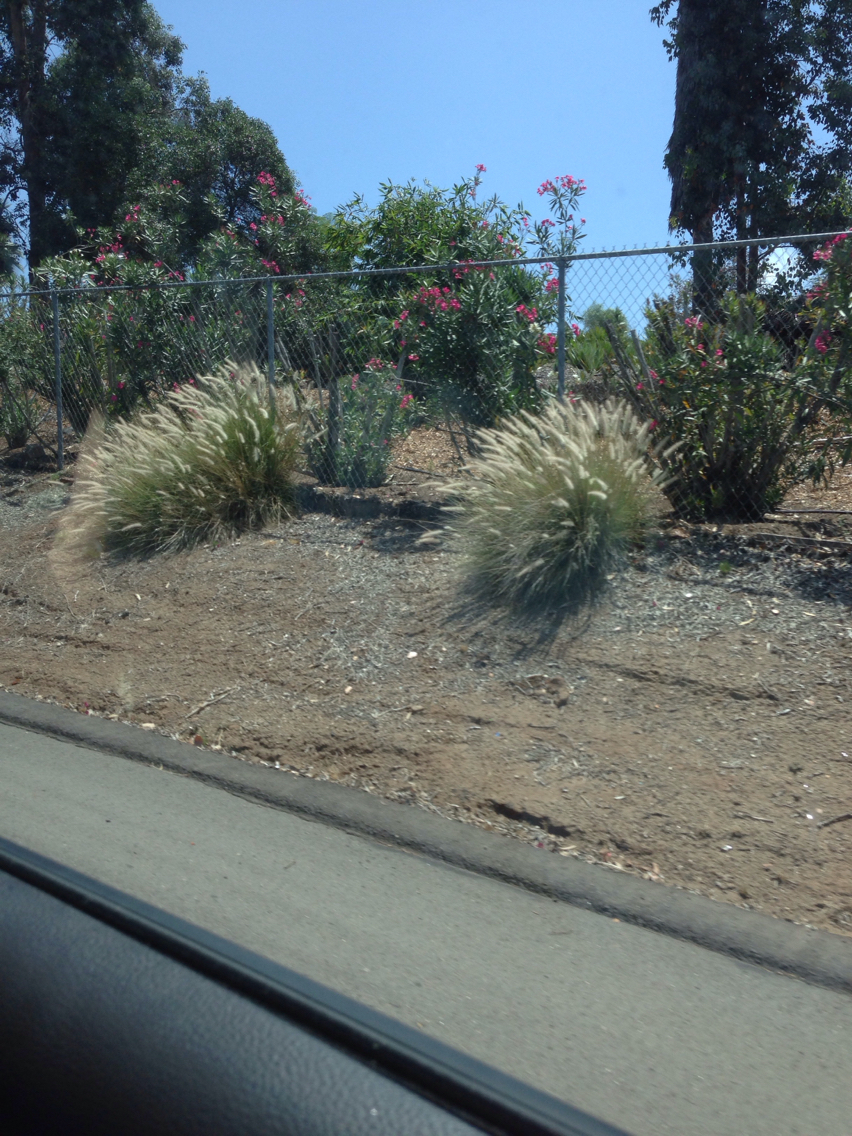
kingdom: Plantae
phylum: Tracheophyta
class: Liliopsida
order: Poales
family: Poaceae
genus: Cenchrus
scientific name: Cenchrus setaceus
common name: Crimson fountaingrass
